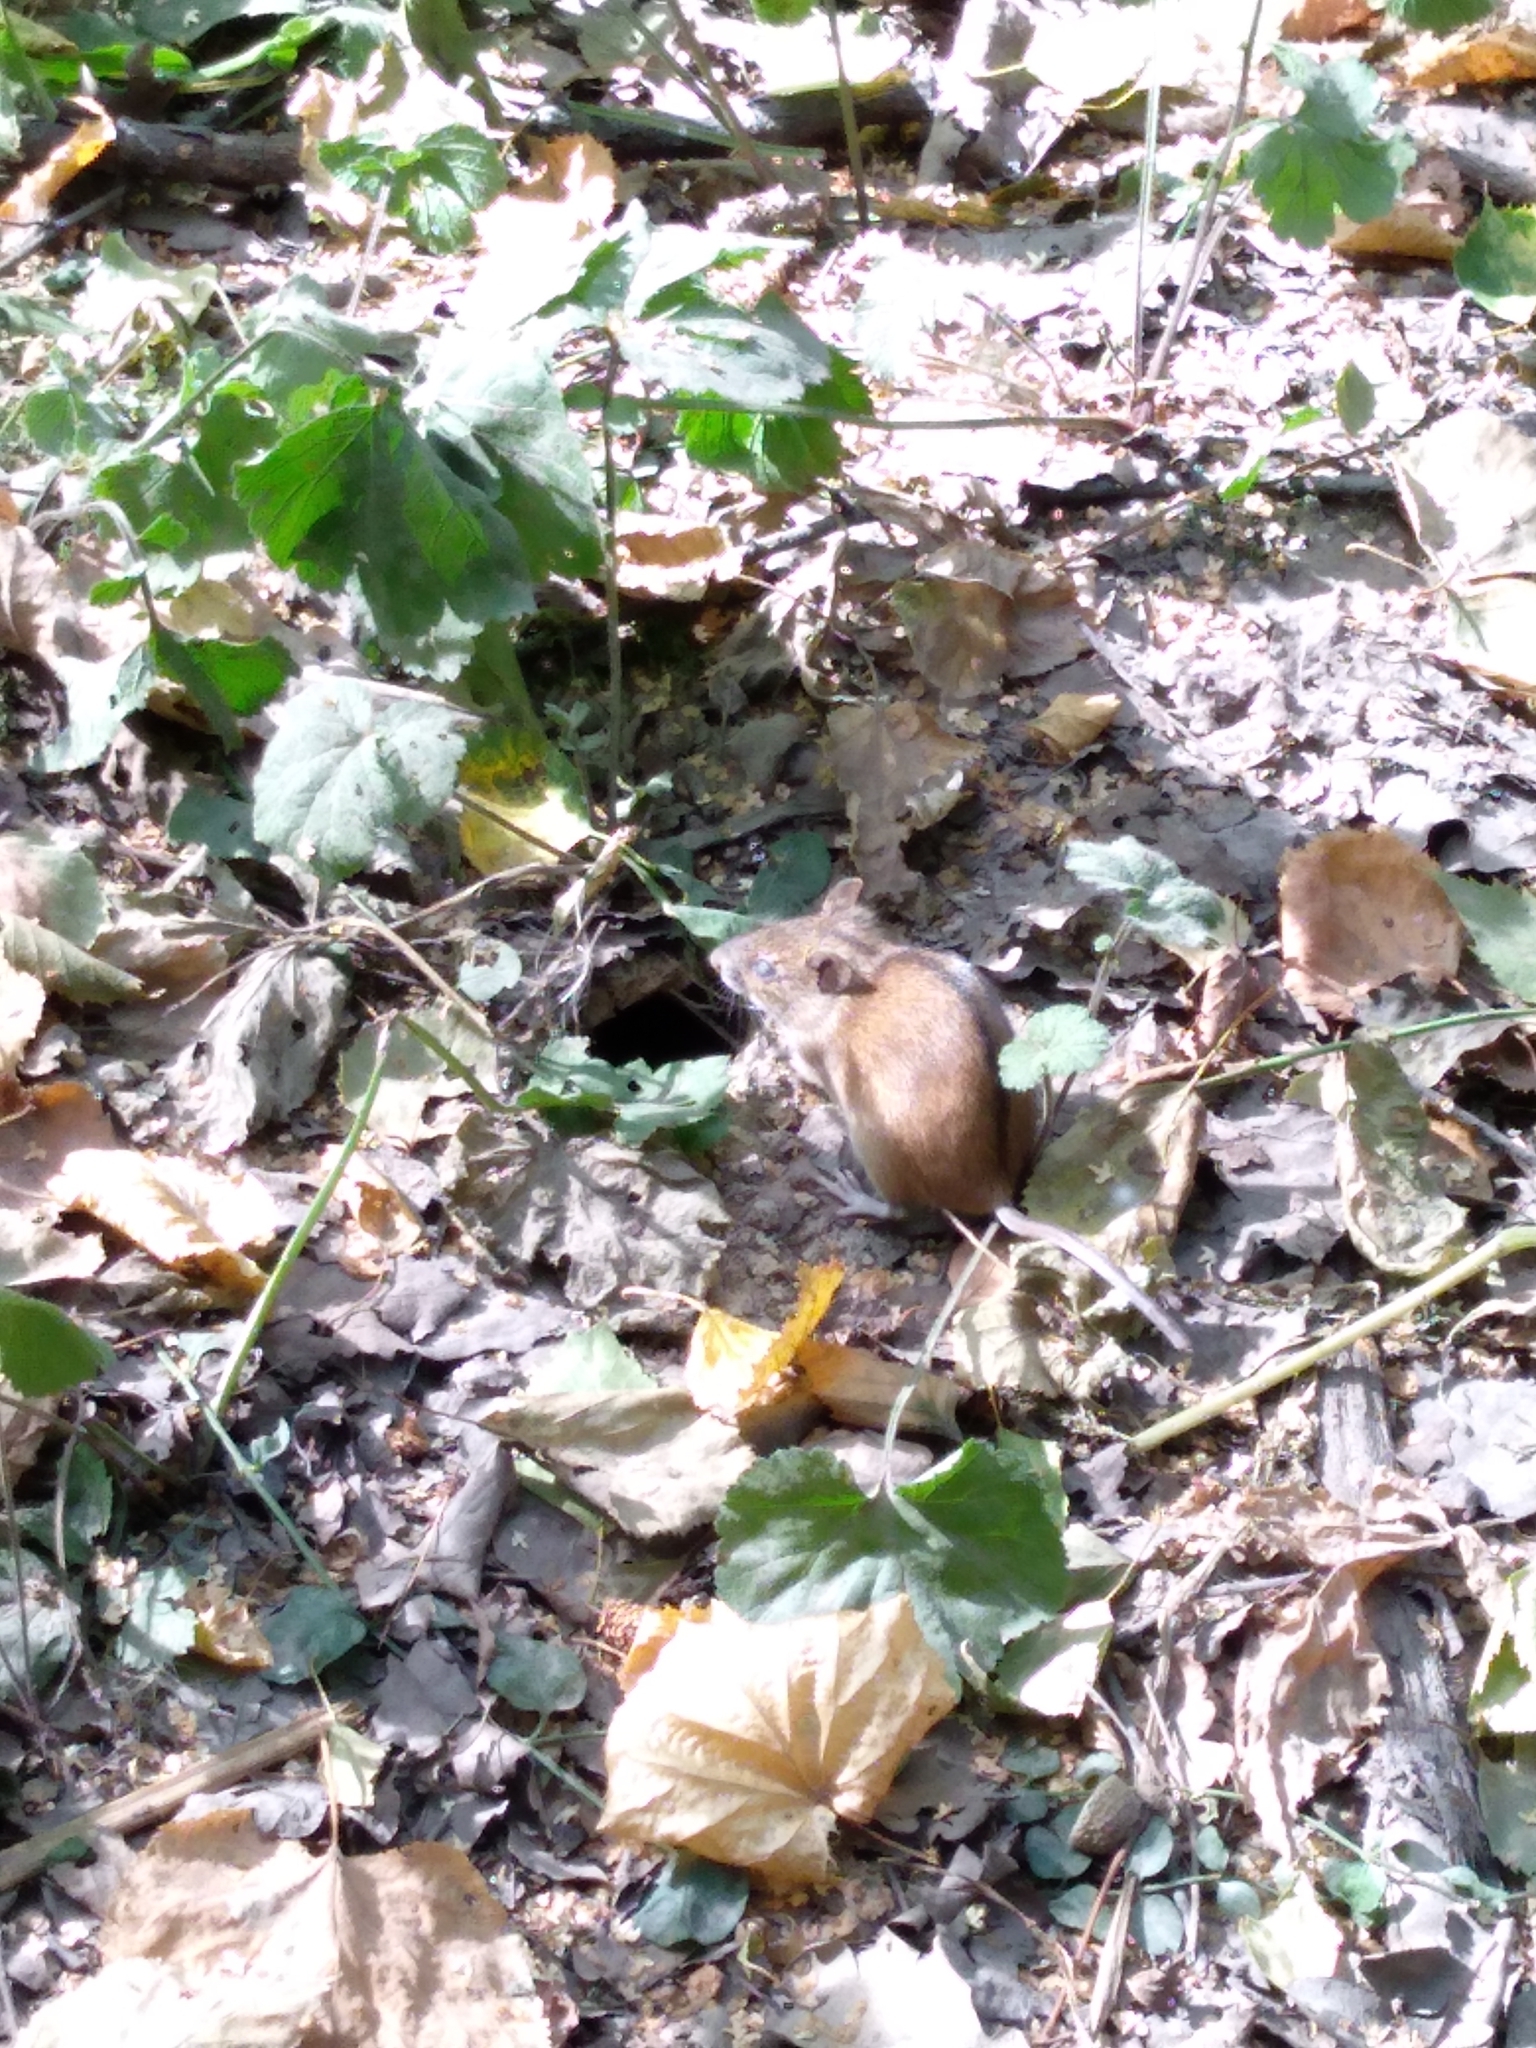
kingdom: Animalia
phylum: Chordata
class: Mammalia
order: Rodentia
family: Muridae
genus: Apodemus
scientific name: Apodemus agrarius
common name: Striped field mouse
